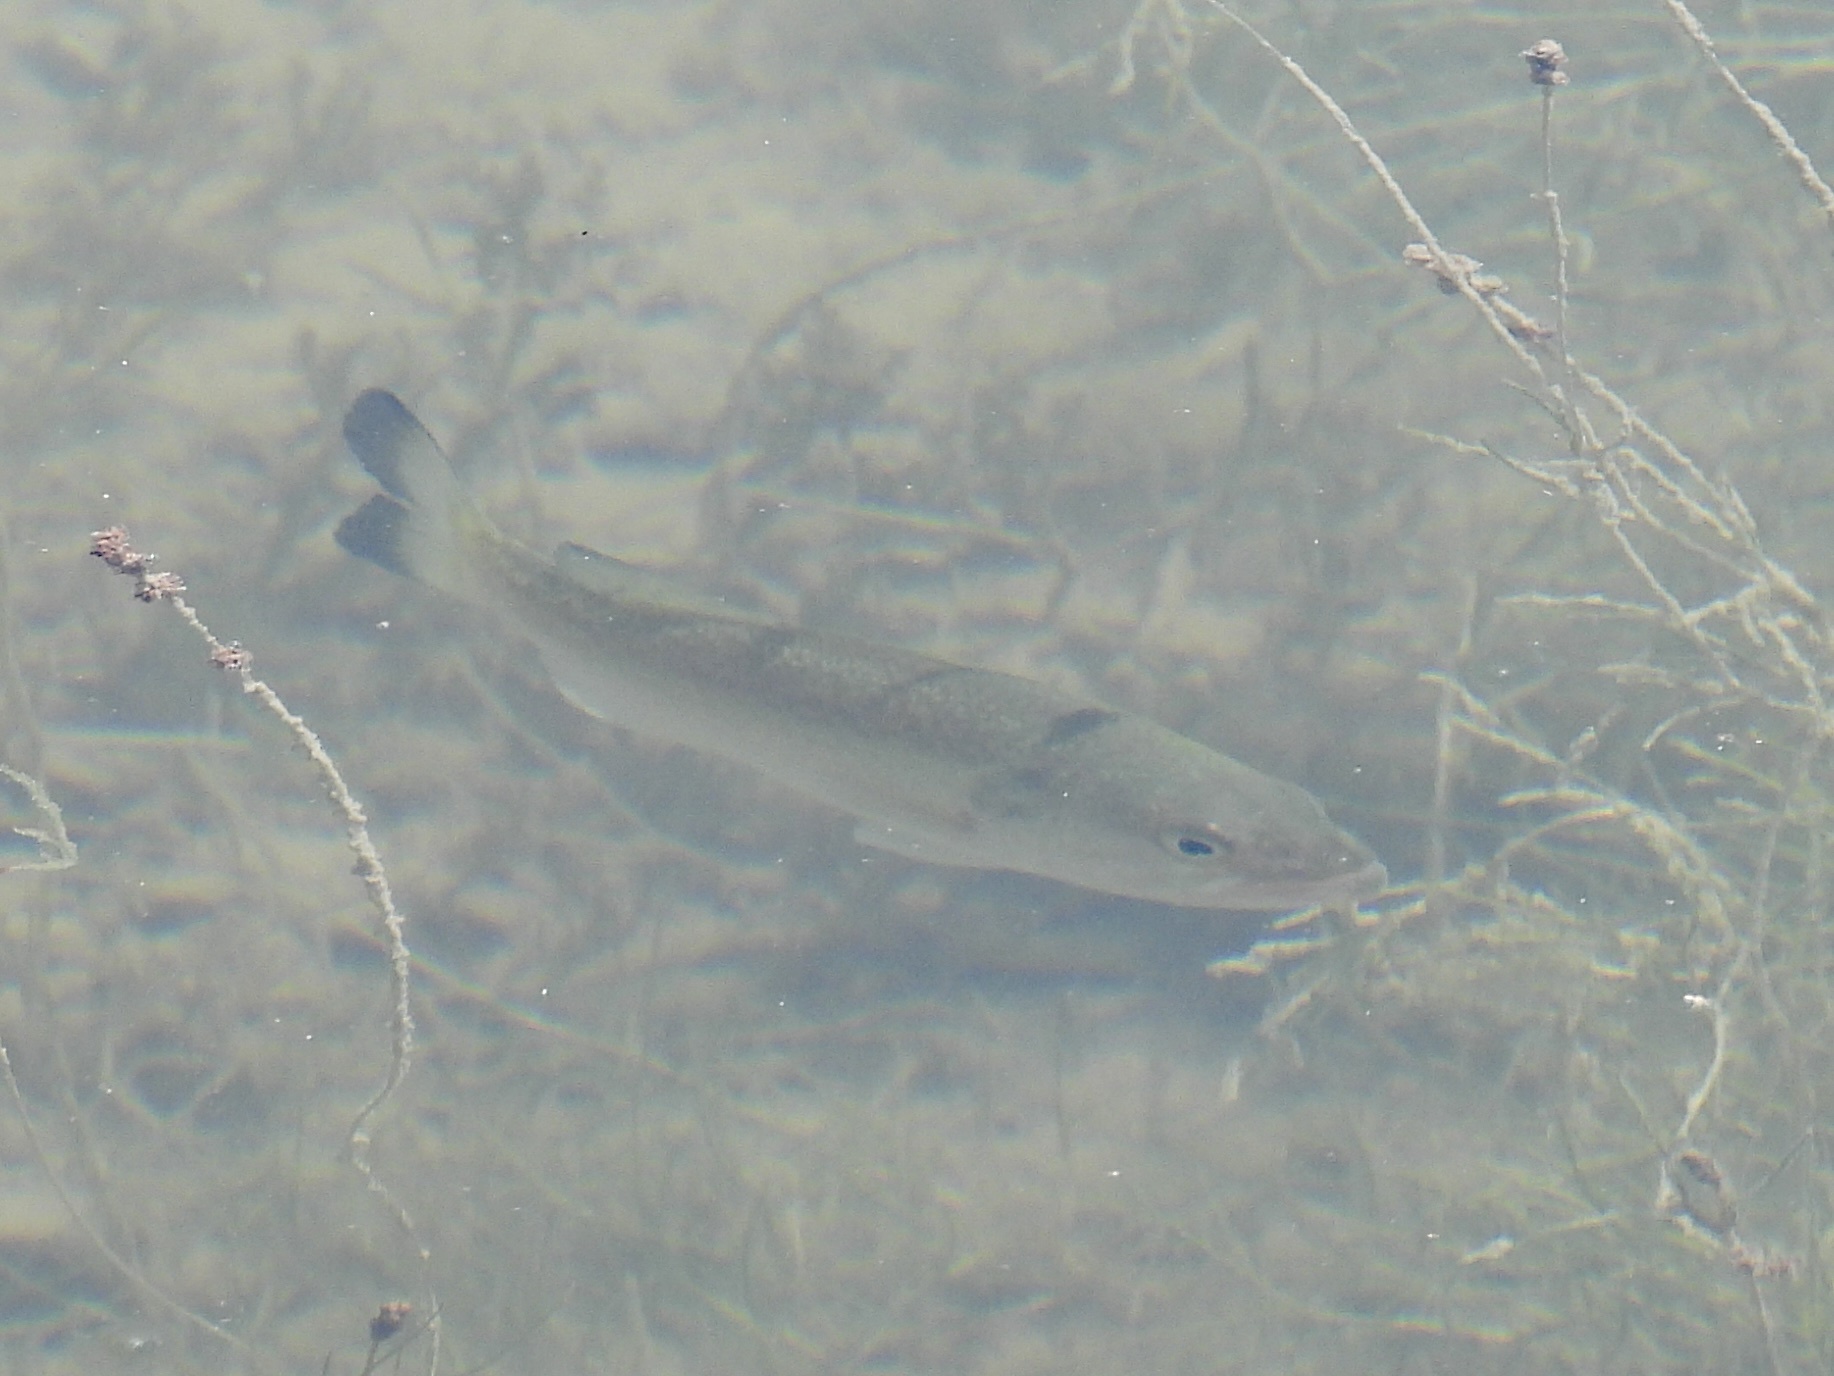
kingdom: Animalia
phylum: Chordata
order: Perciformes
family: Centrarchidae
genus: Micropterus
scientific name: Micropterus
